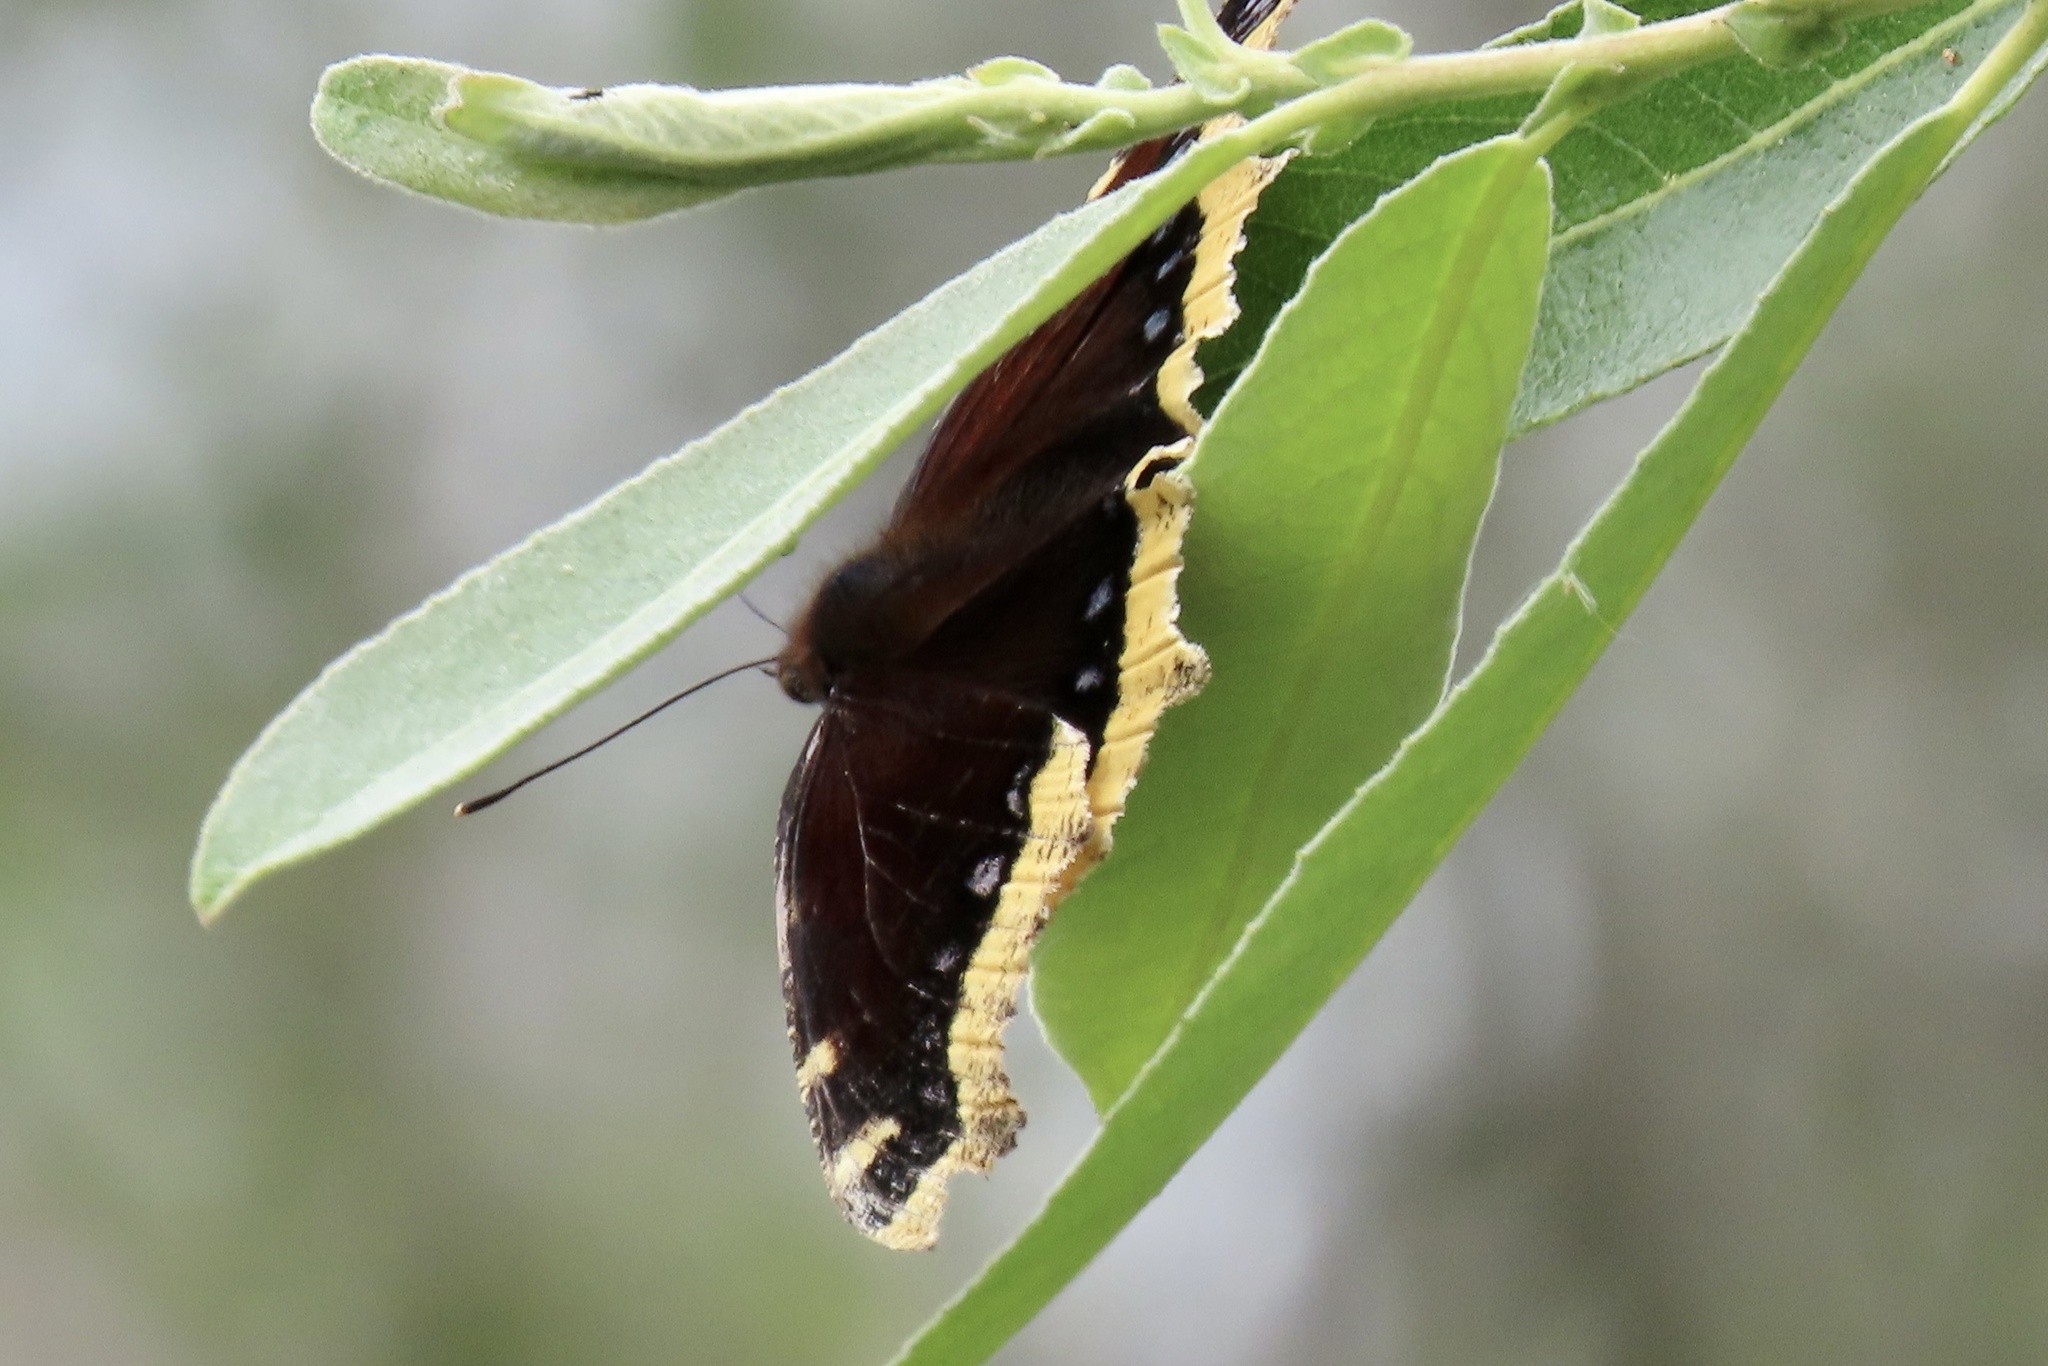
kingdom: Animalia
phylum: Arthropoda
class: Insecta
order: Lepidoptera
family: Nymphalidae
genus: Nymphalis
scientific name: Nymphalis antiopa
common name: Camberwell beauty
